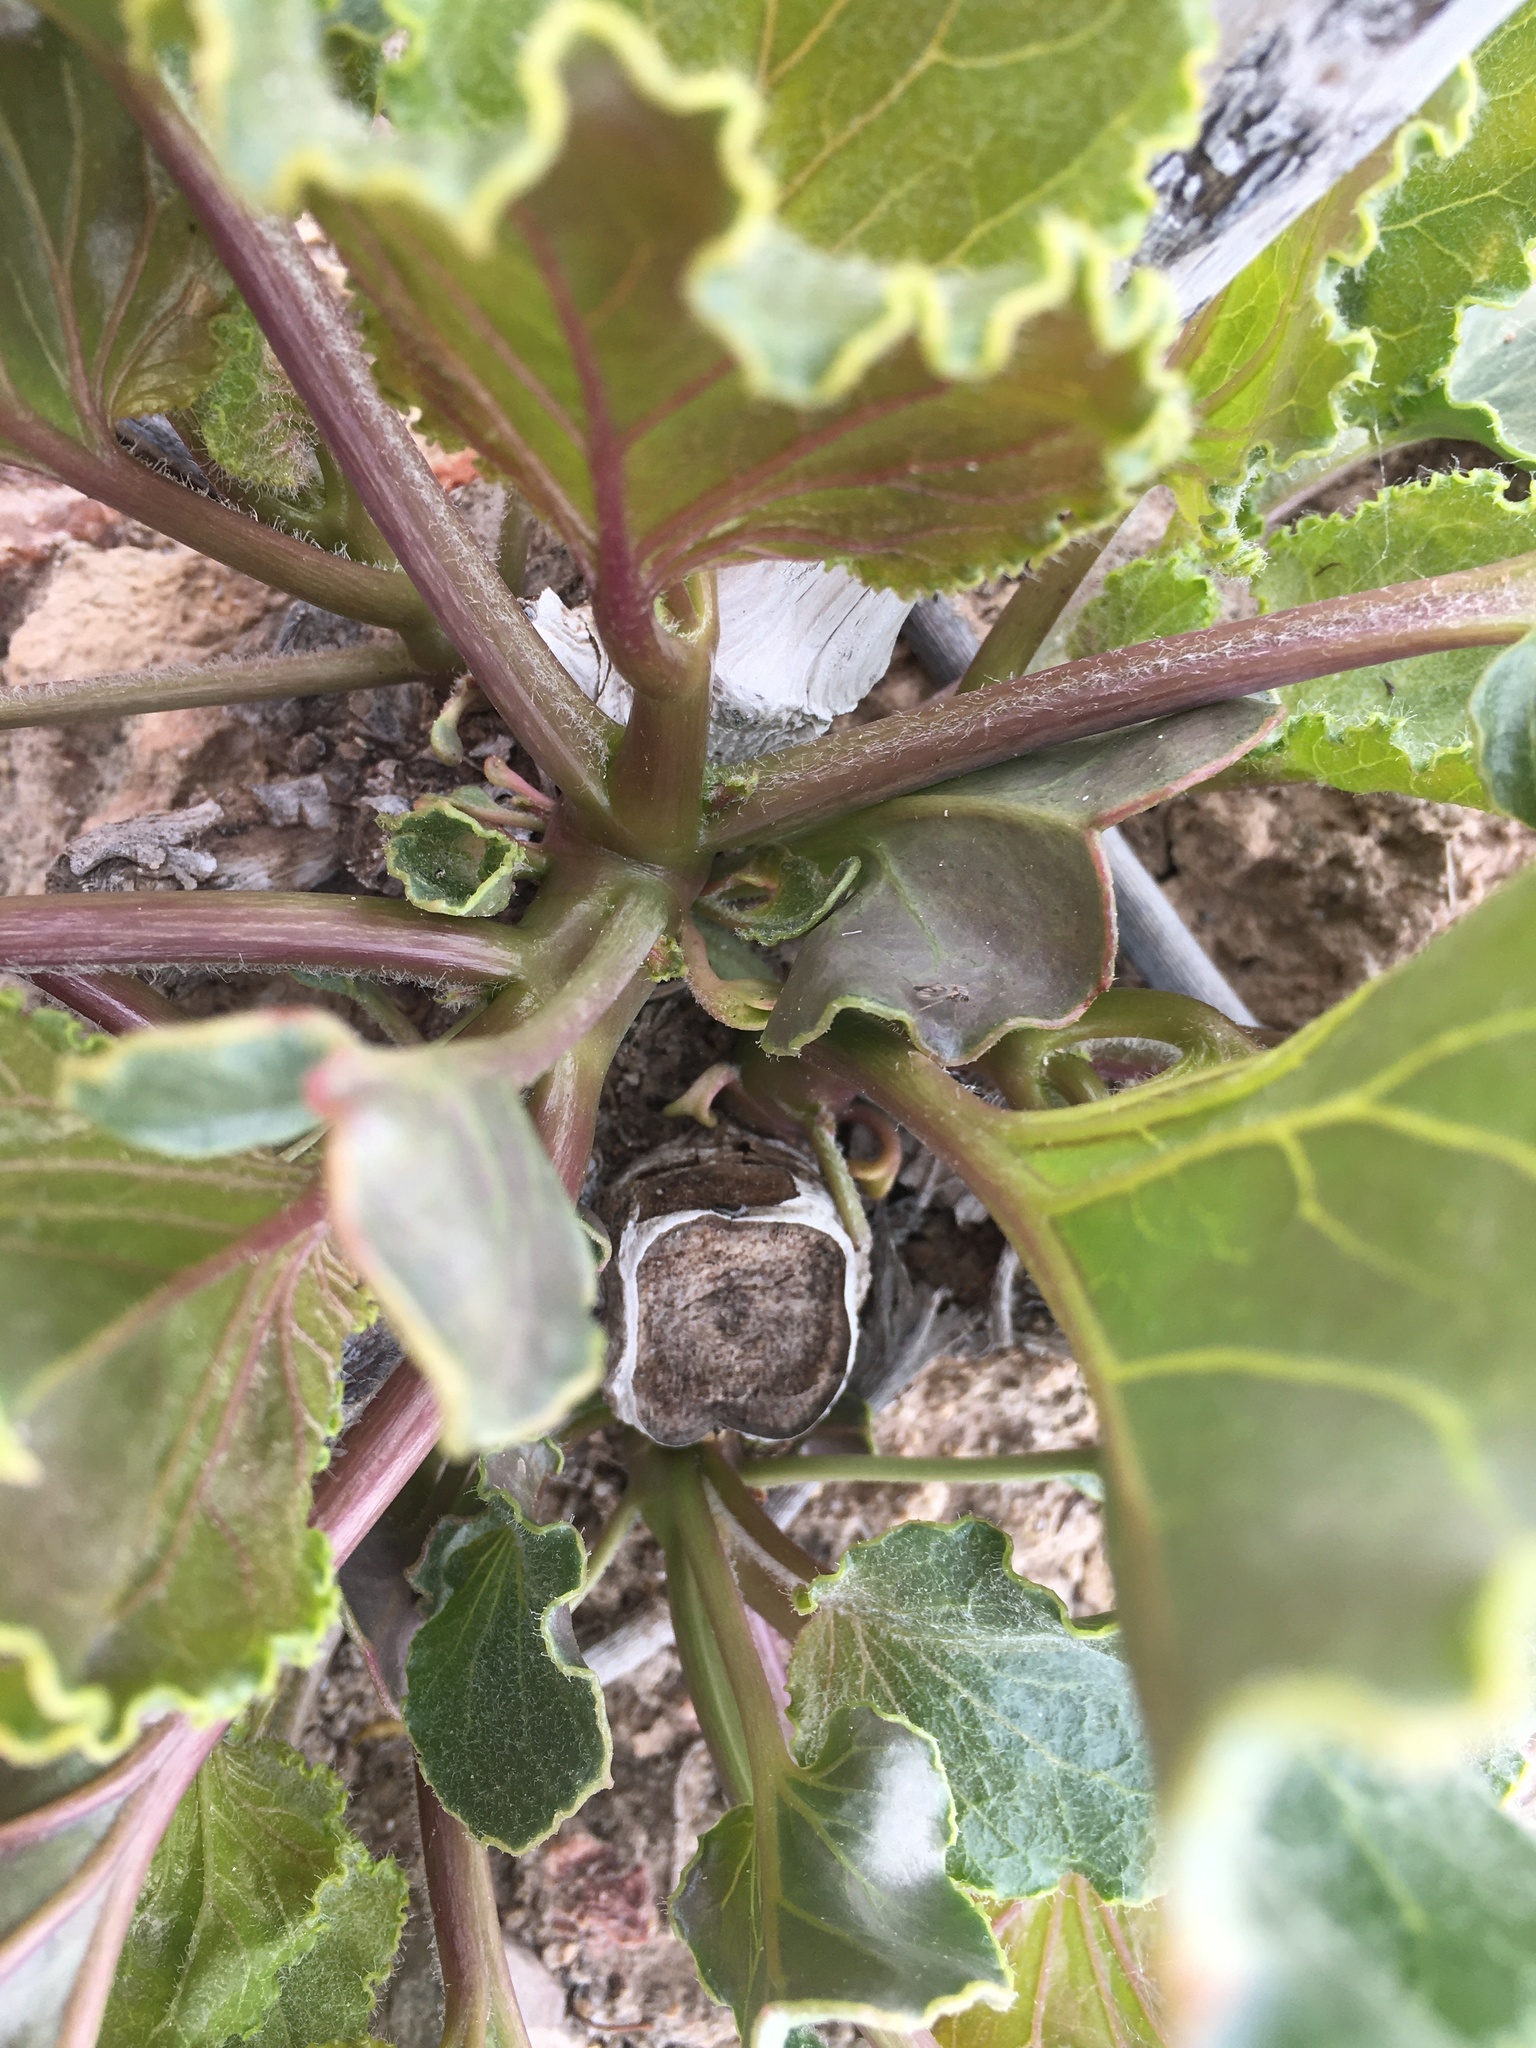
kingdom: Plantae
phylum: Tracheophyta
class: Magnoliopsida
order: Caryophyllales
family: Nyctaginaceae
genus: Anulocaulis
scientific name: Anulocaulis leiosolenus
